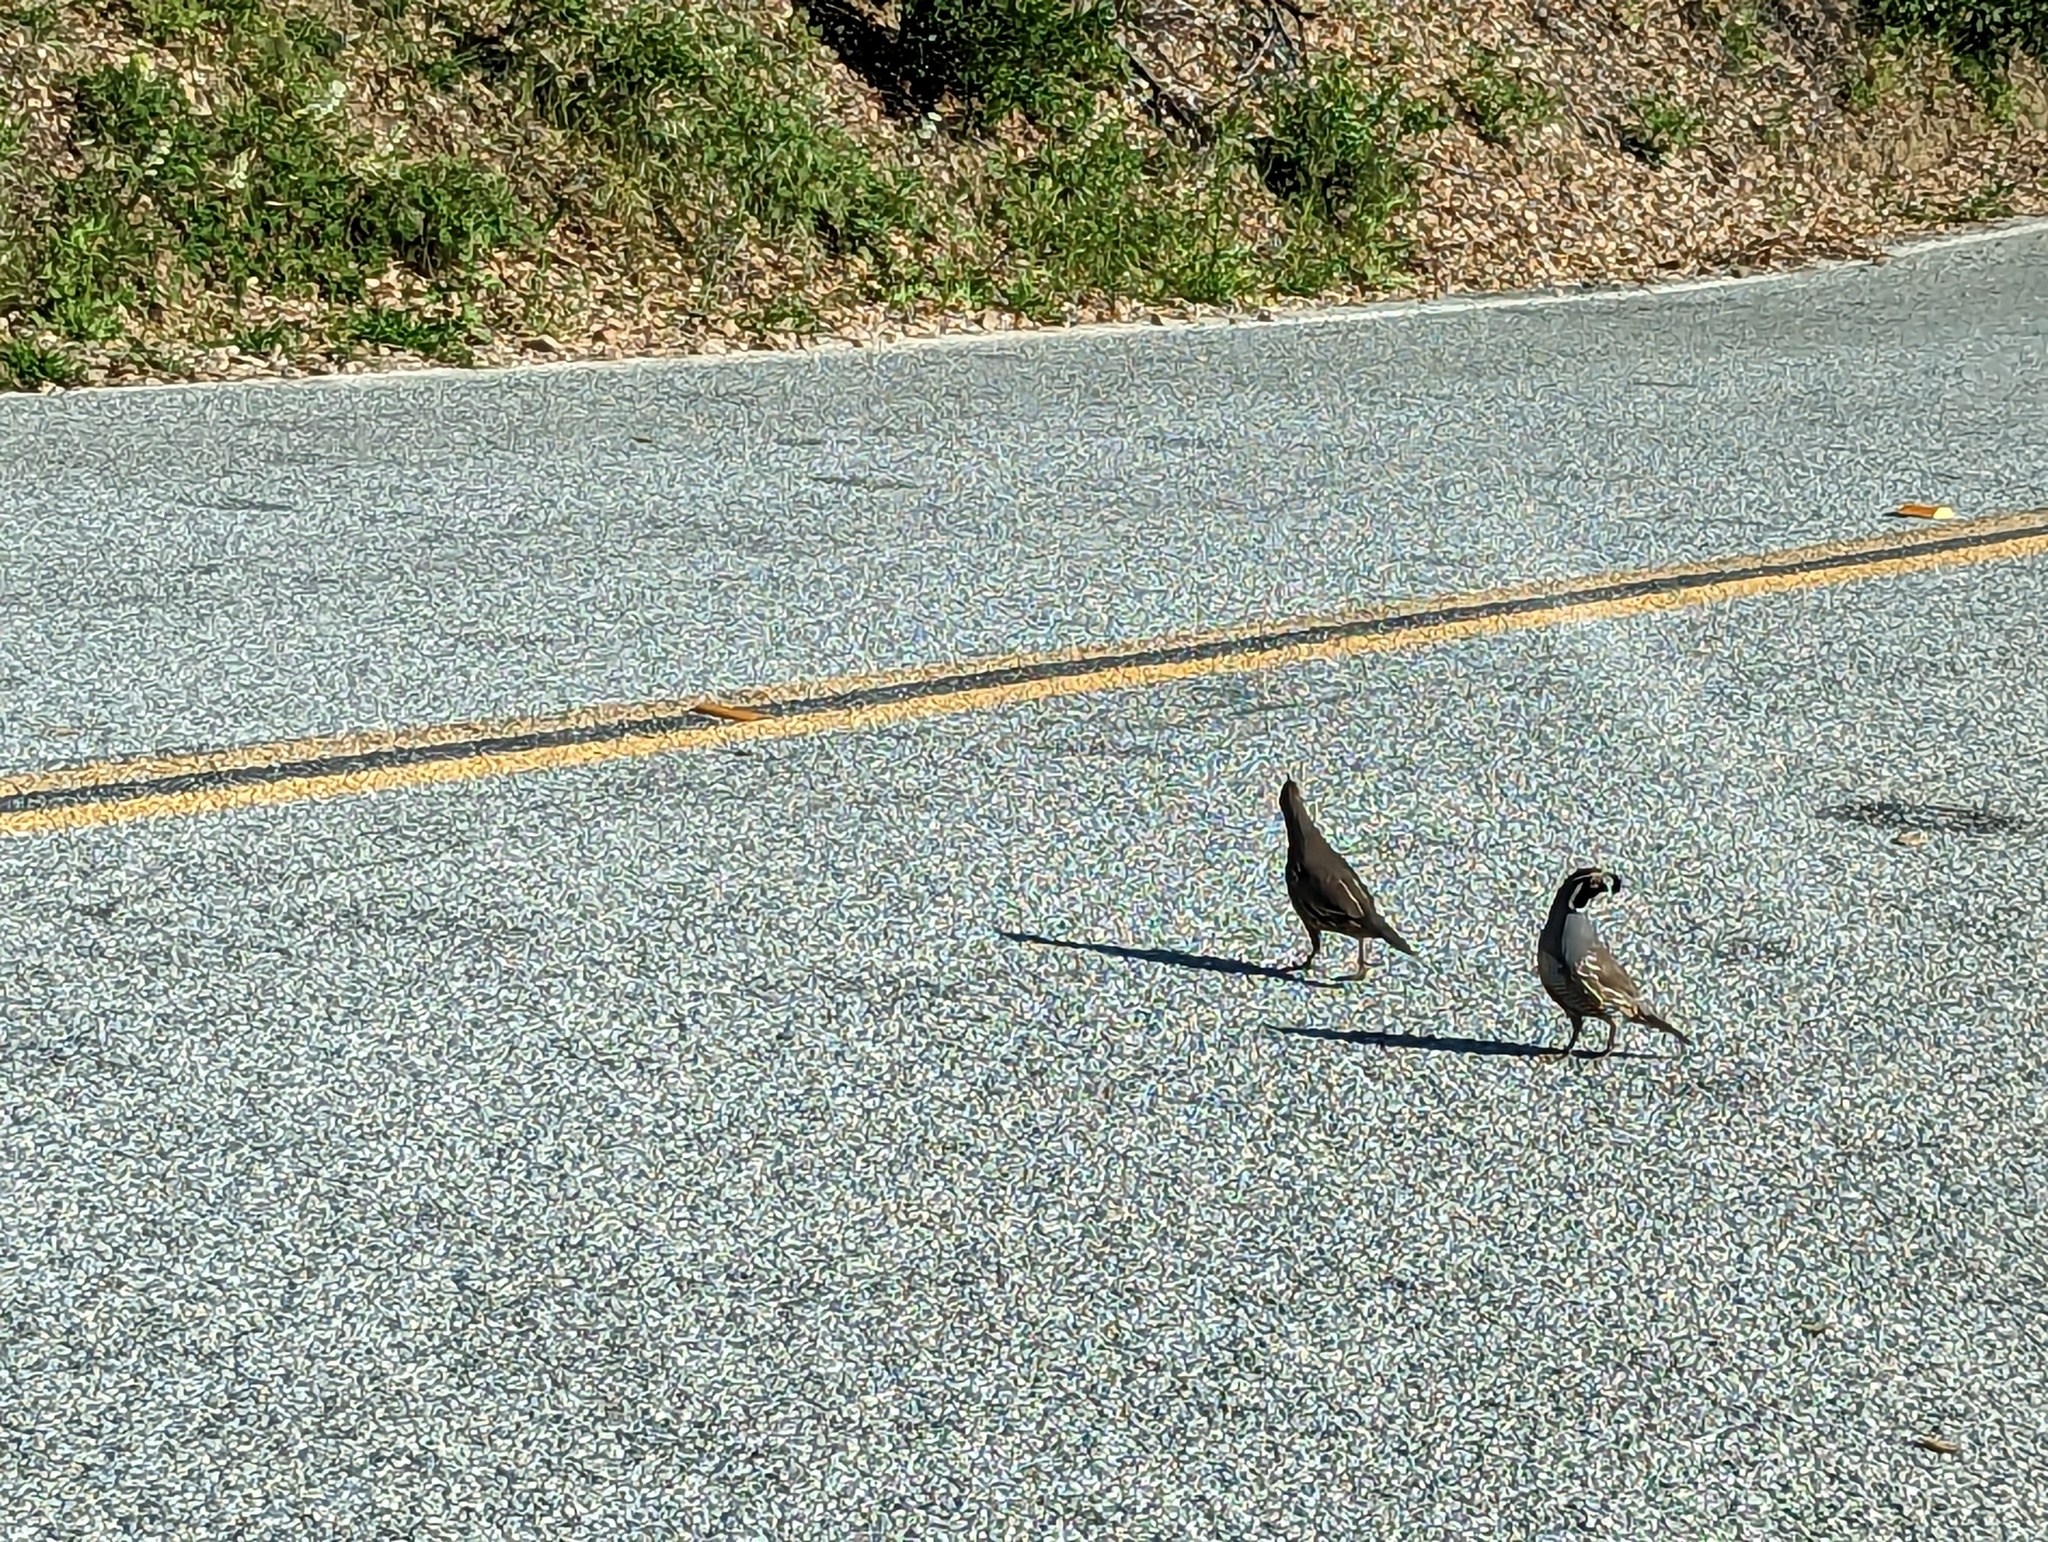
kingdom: Animalia
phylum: Chordata
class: Aves
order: Galliformes
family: Odontophoridae
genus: Callipepla
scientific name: Callipepla californica
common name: California quail
